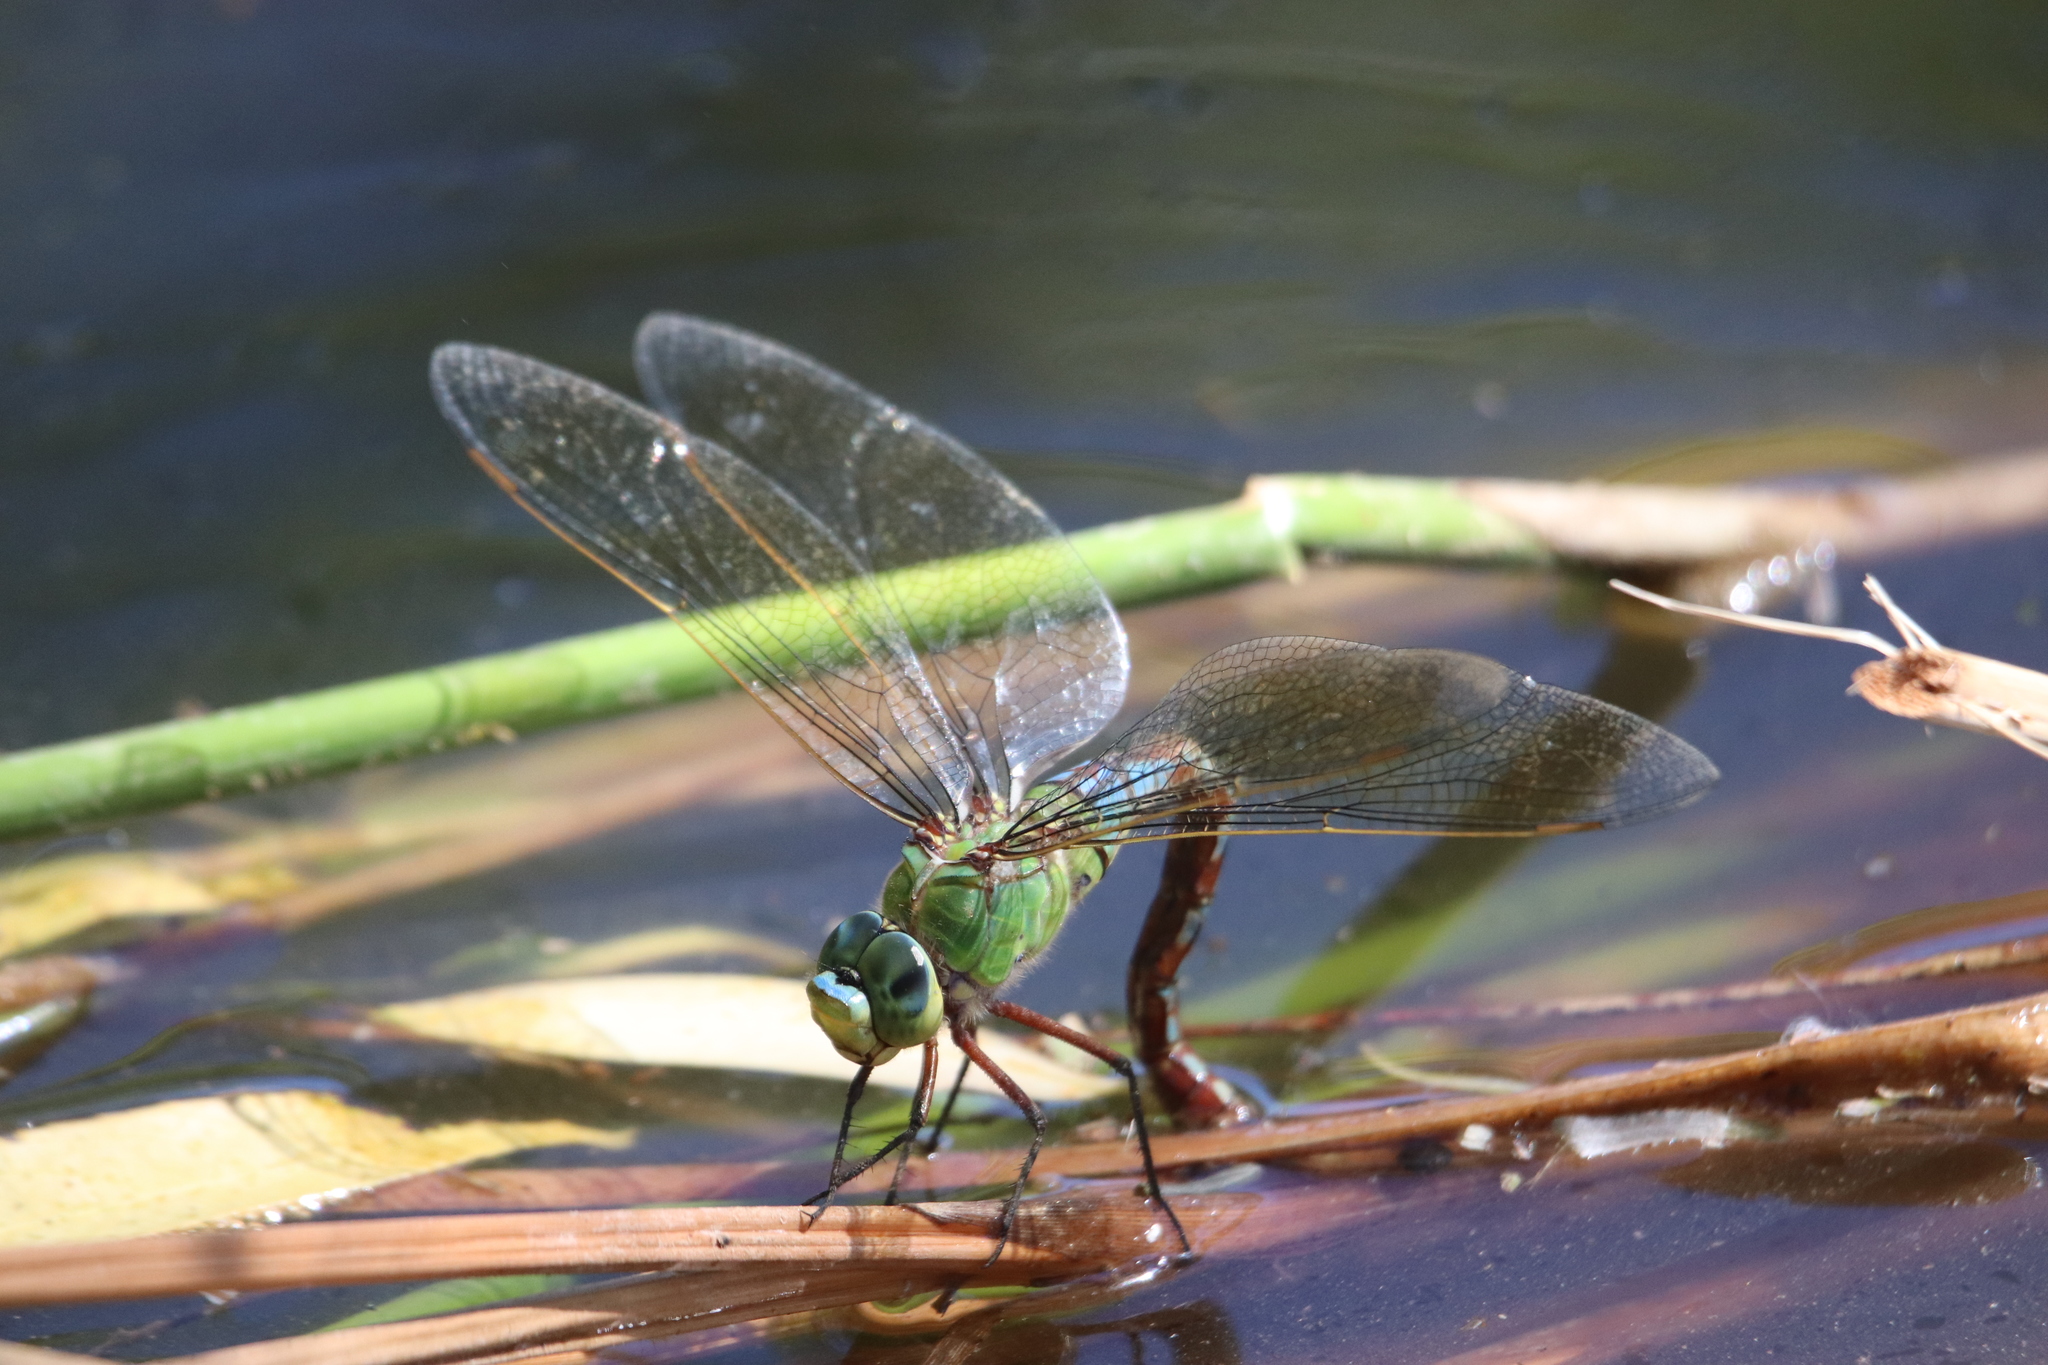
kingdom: Animalia
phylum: Arthropoda
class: Insecta
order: Odonata
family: Aeshnidae
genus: Anax
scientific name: Anax imperator
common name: Emperor dragonfly
